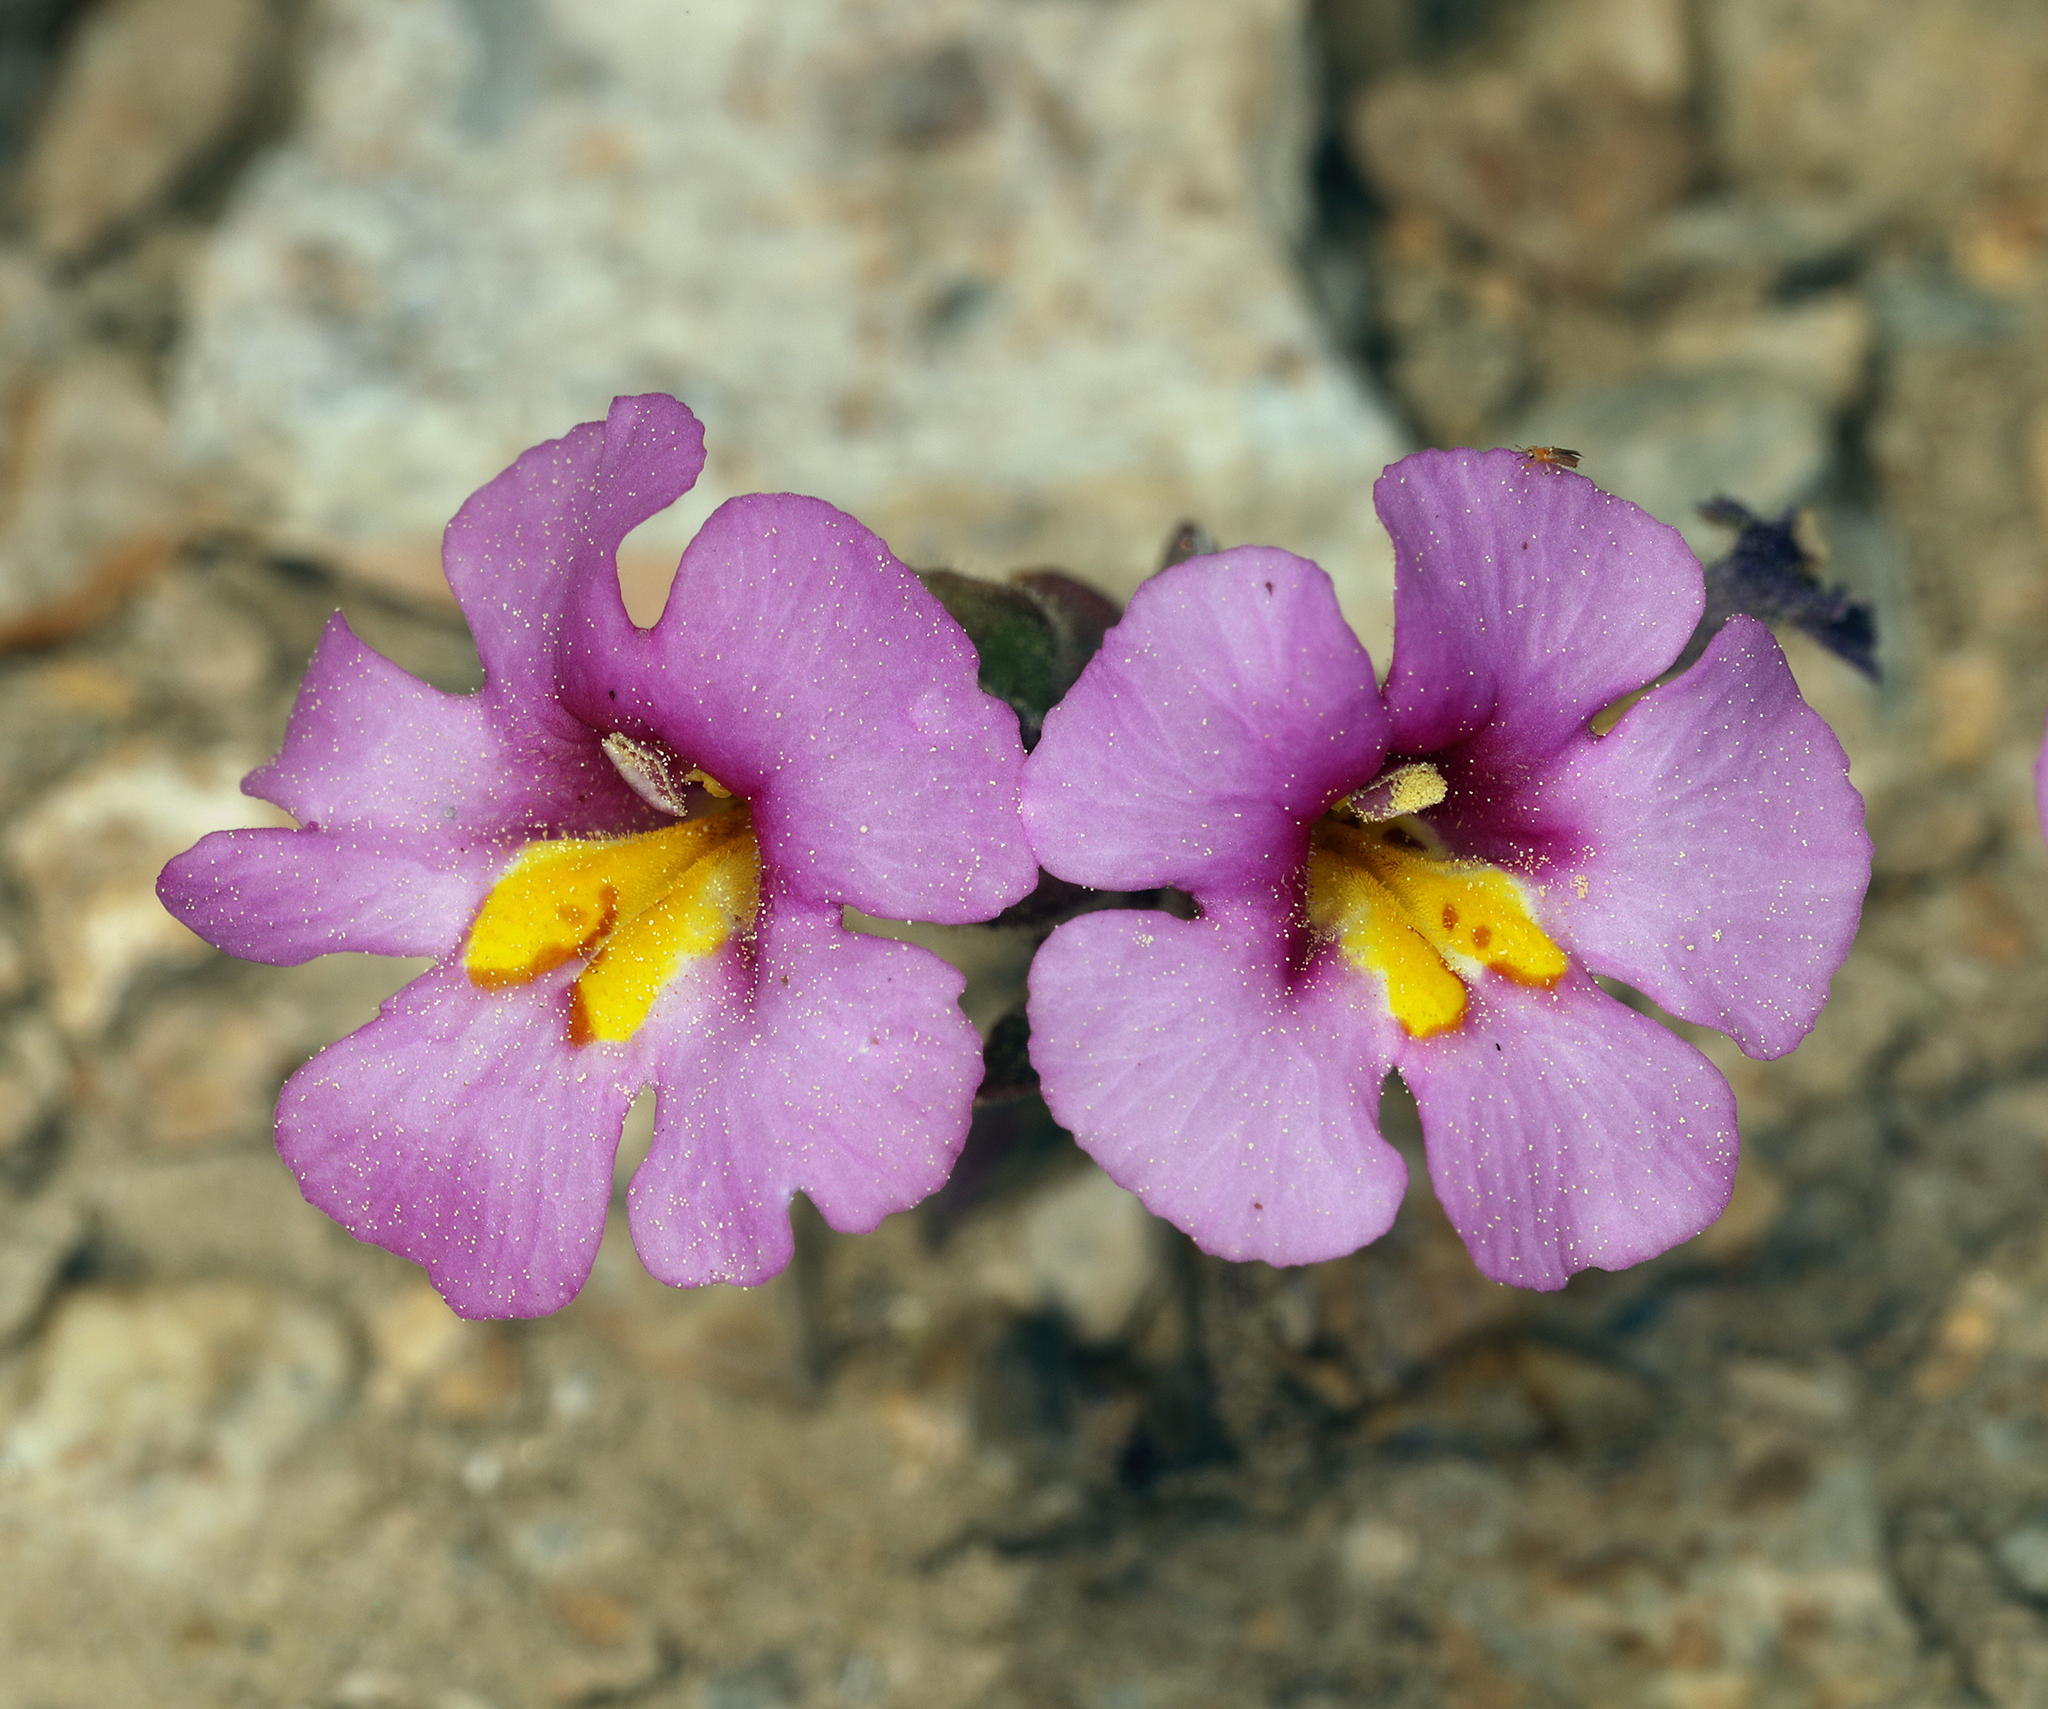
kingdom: Plantae
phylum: Tracheophyta
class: Magnoliopsida
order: Lamiales
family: Phrymaceae
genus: Diplacus
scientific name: Diplacus parryi
